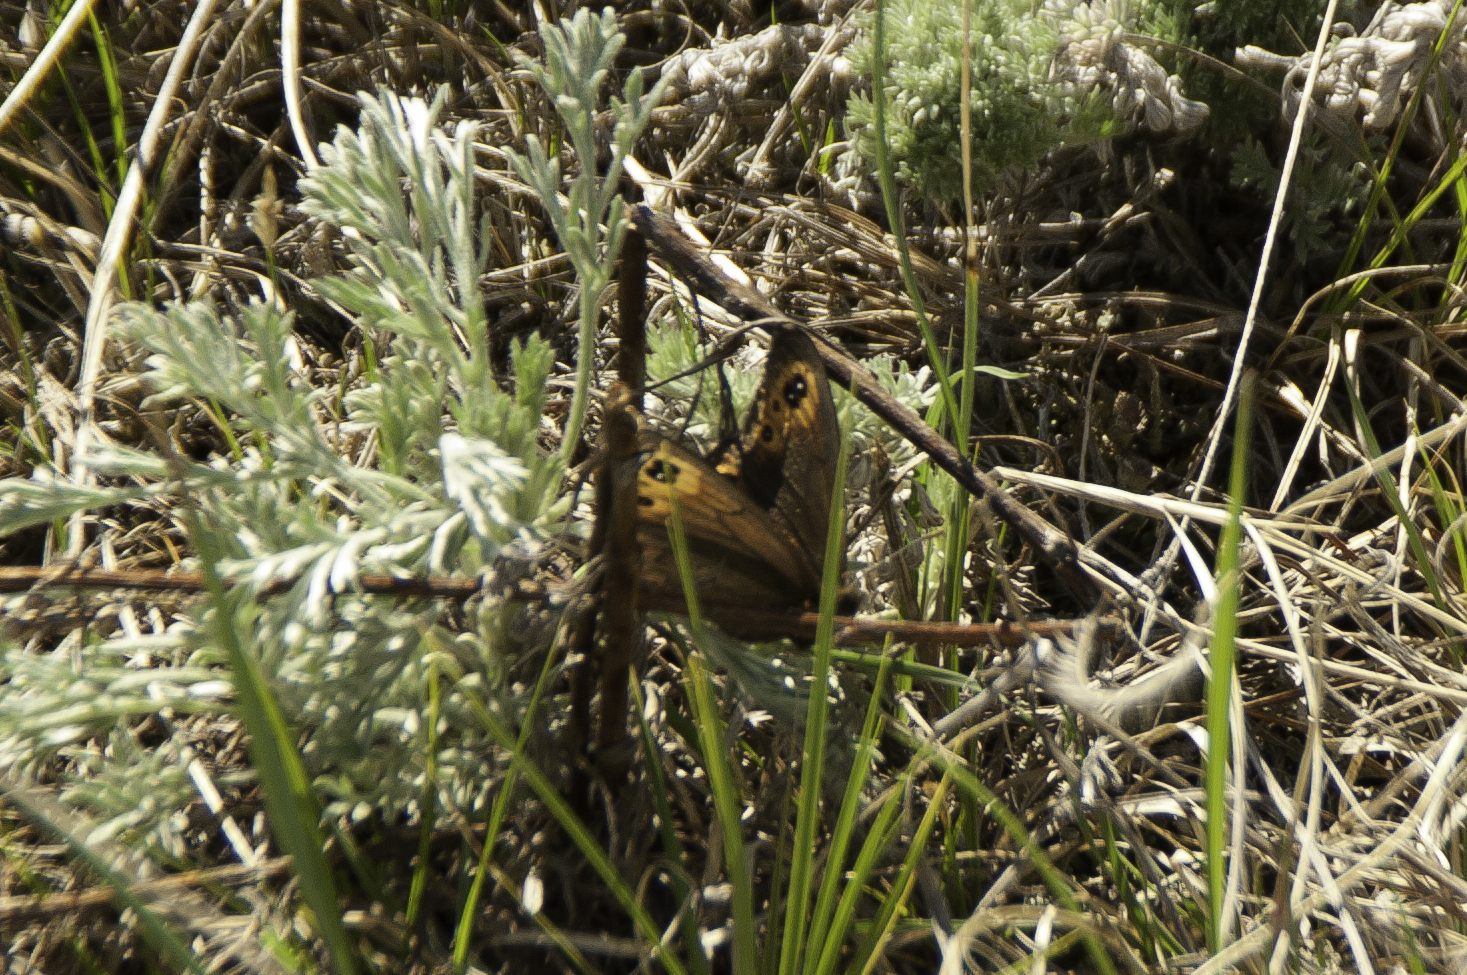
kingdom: Animalia
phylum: Arthropoda
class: Insecta
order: Lepidoptera
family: Nymphalidae
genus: Erebia
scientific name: Erebia epipsodea
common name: Common alpine
